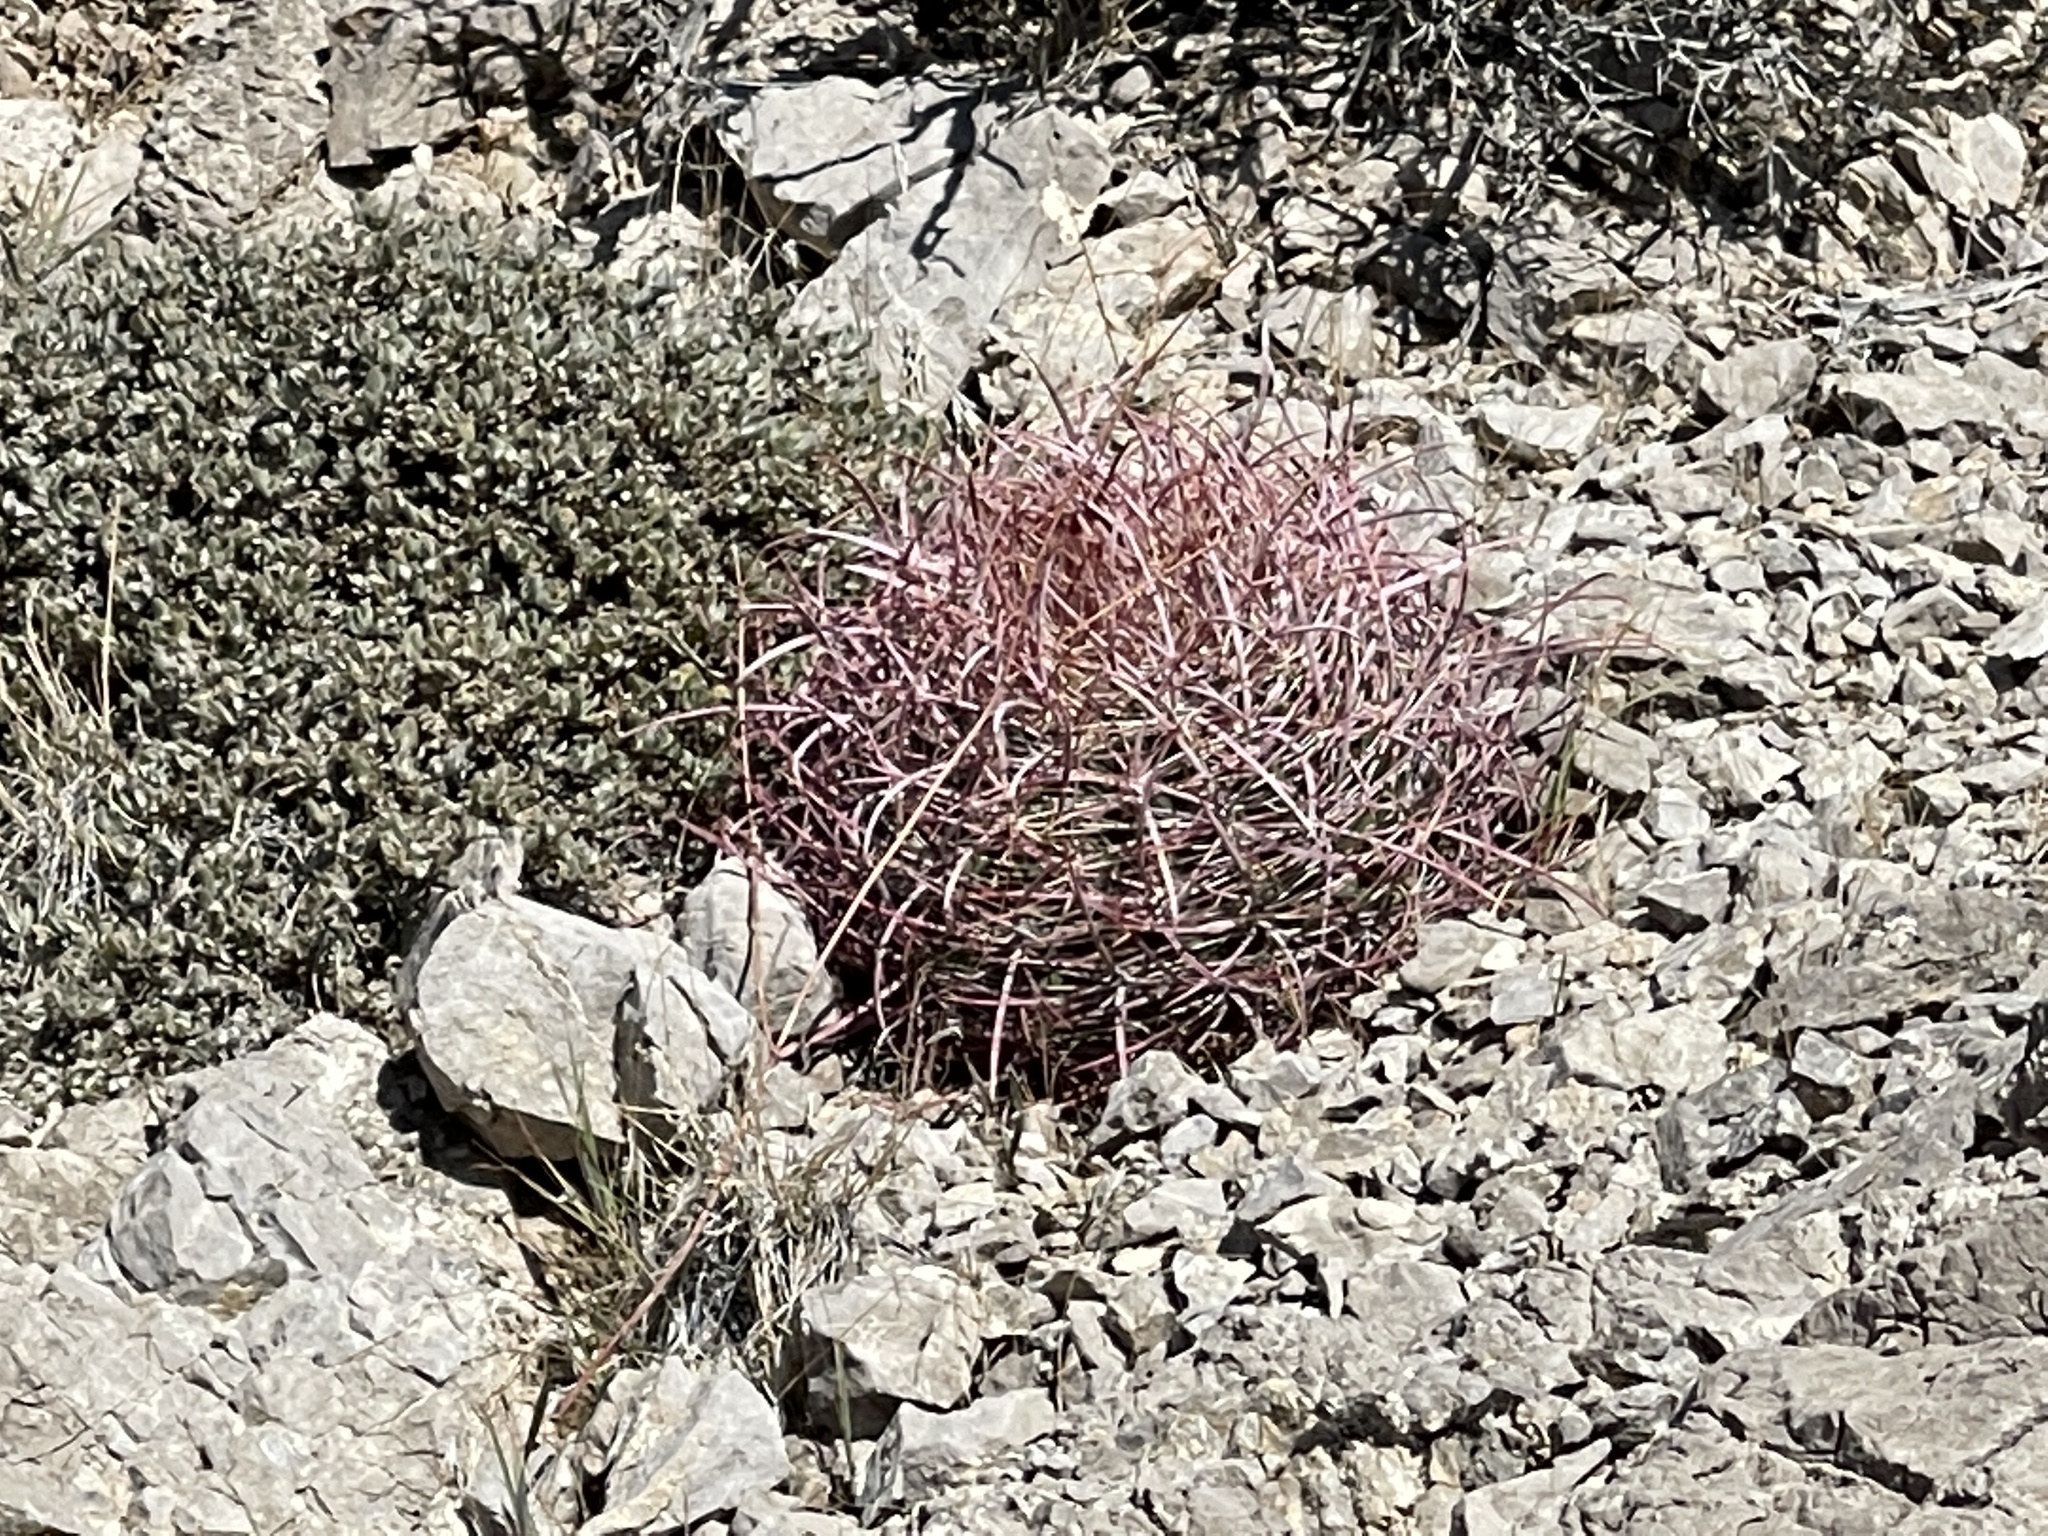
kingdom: Plantae
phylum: Tracheophyta
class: Magnoliopsida
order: Caryophyllales
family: Cactaceae
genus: Ferocactus
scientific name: Ferocactus cylindraceus
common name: California barrel cactus
